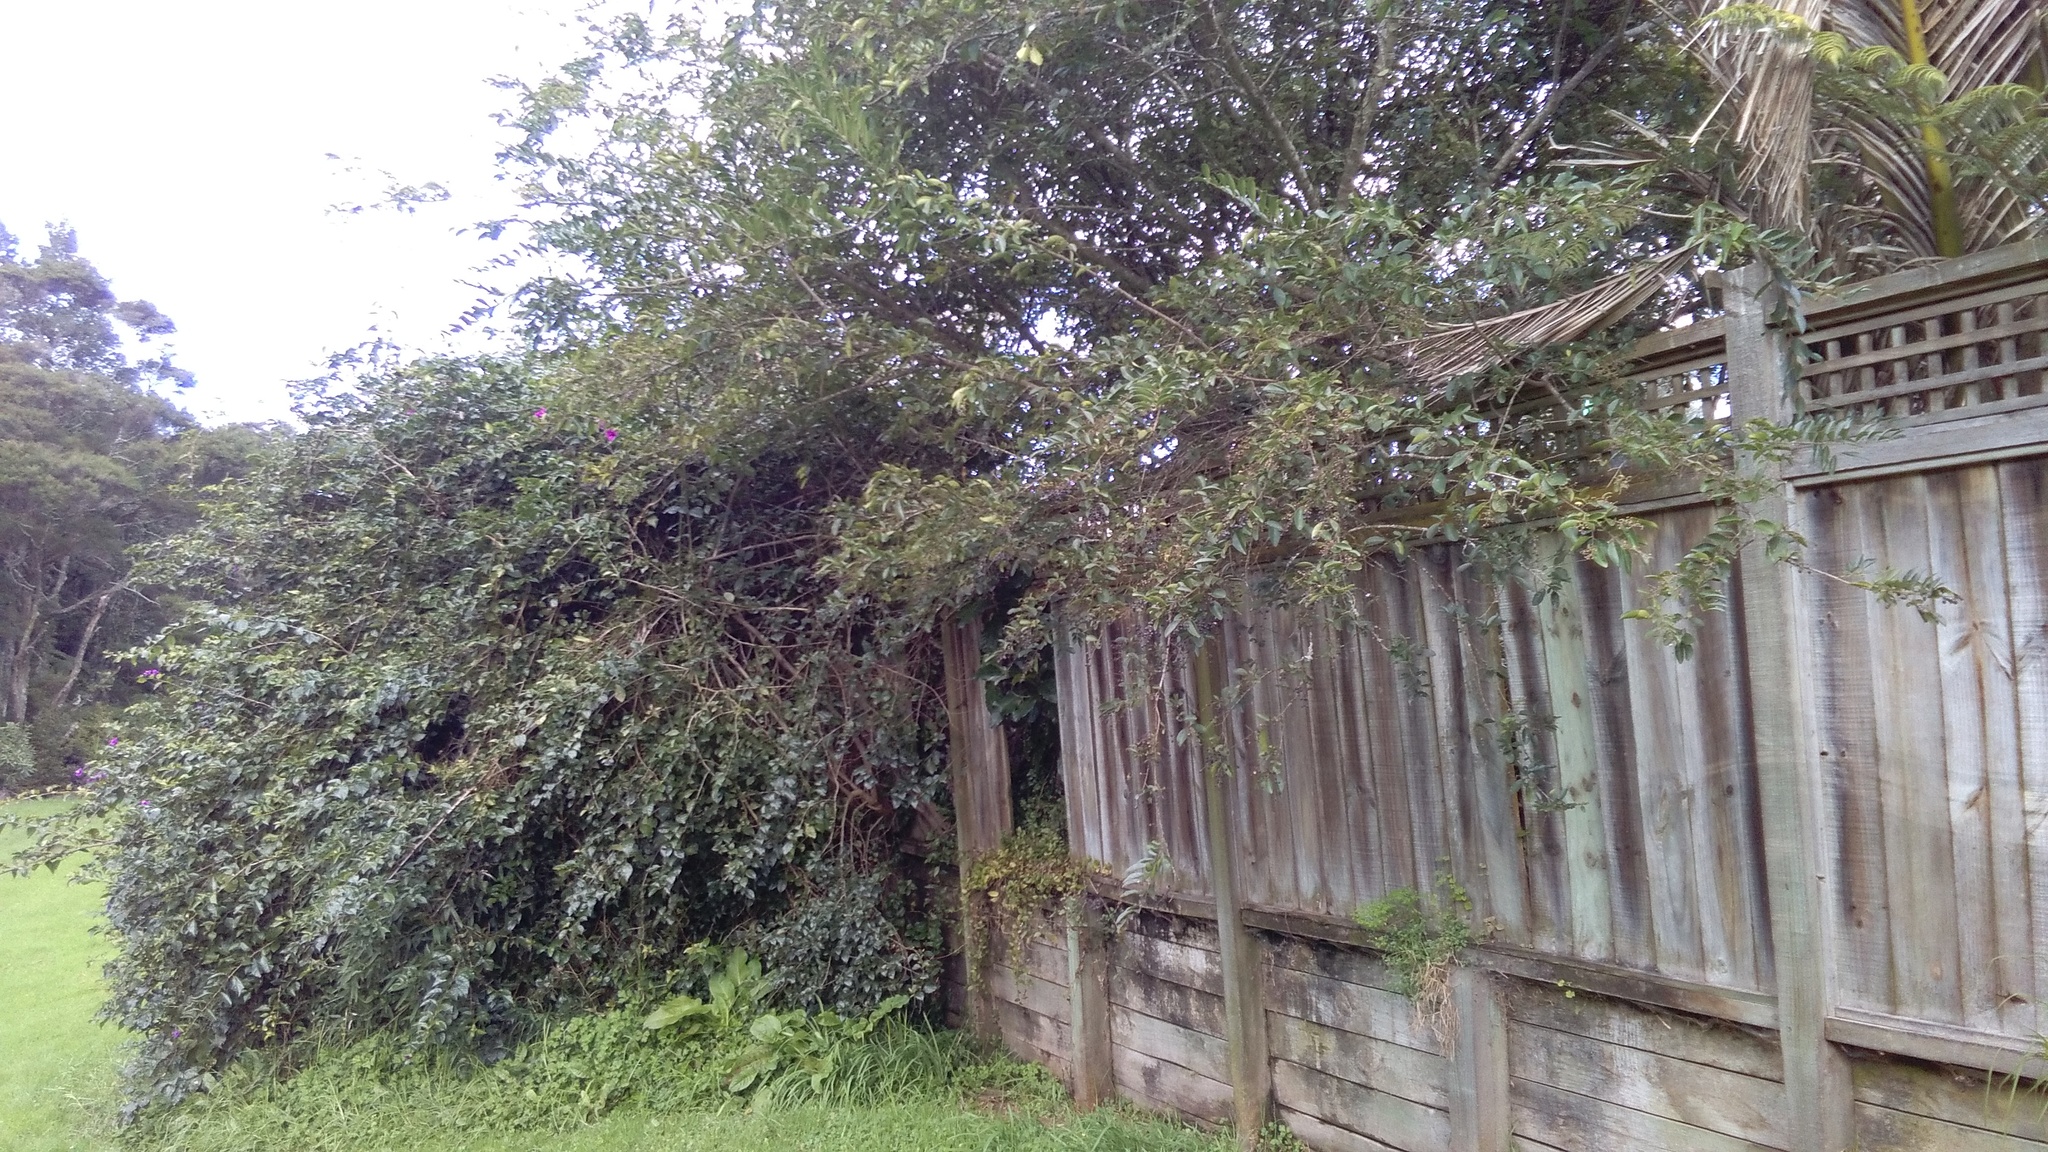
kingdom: Plantae
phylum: Tracheophyta
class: Magnoliopsida
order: Lamiales
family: Oleaceae
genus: Ligustrum
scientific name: Ligustrum sinense
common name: Chinese privet
